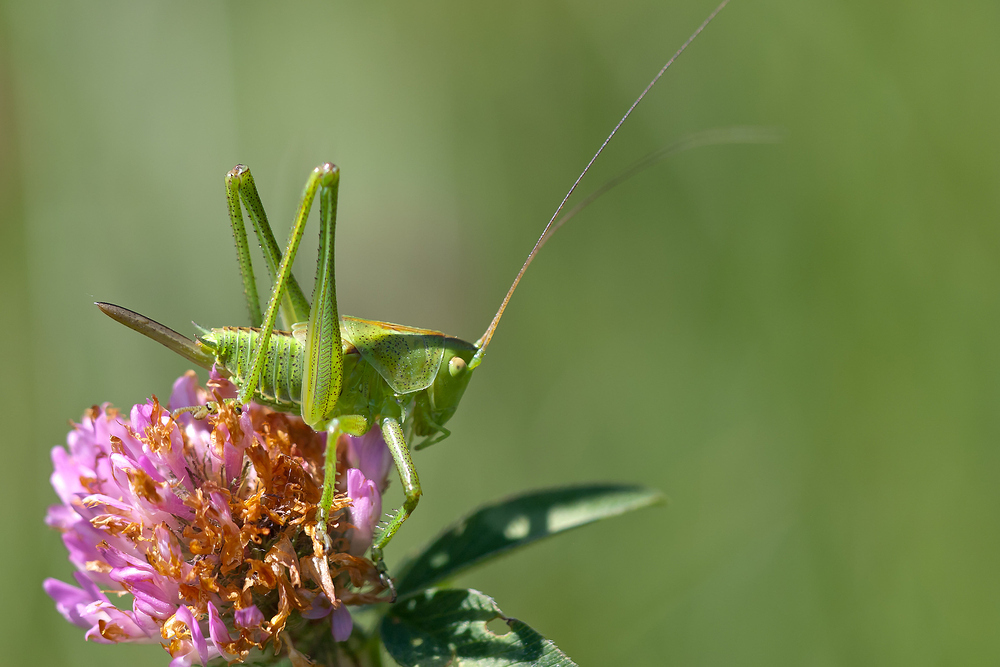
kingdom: Animalia
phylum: Arthropoda
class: Insecta
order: Orthoptera
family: Tettigoniidae
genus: Tettigonia
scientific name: Tettigonia viridissima
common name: Great green bush-cricket
